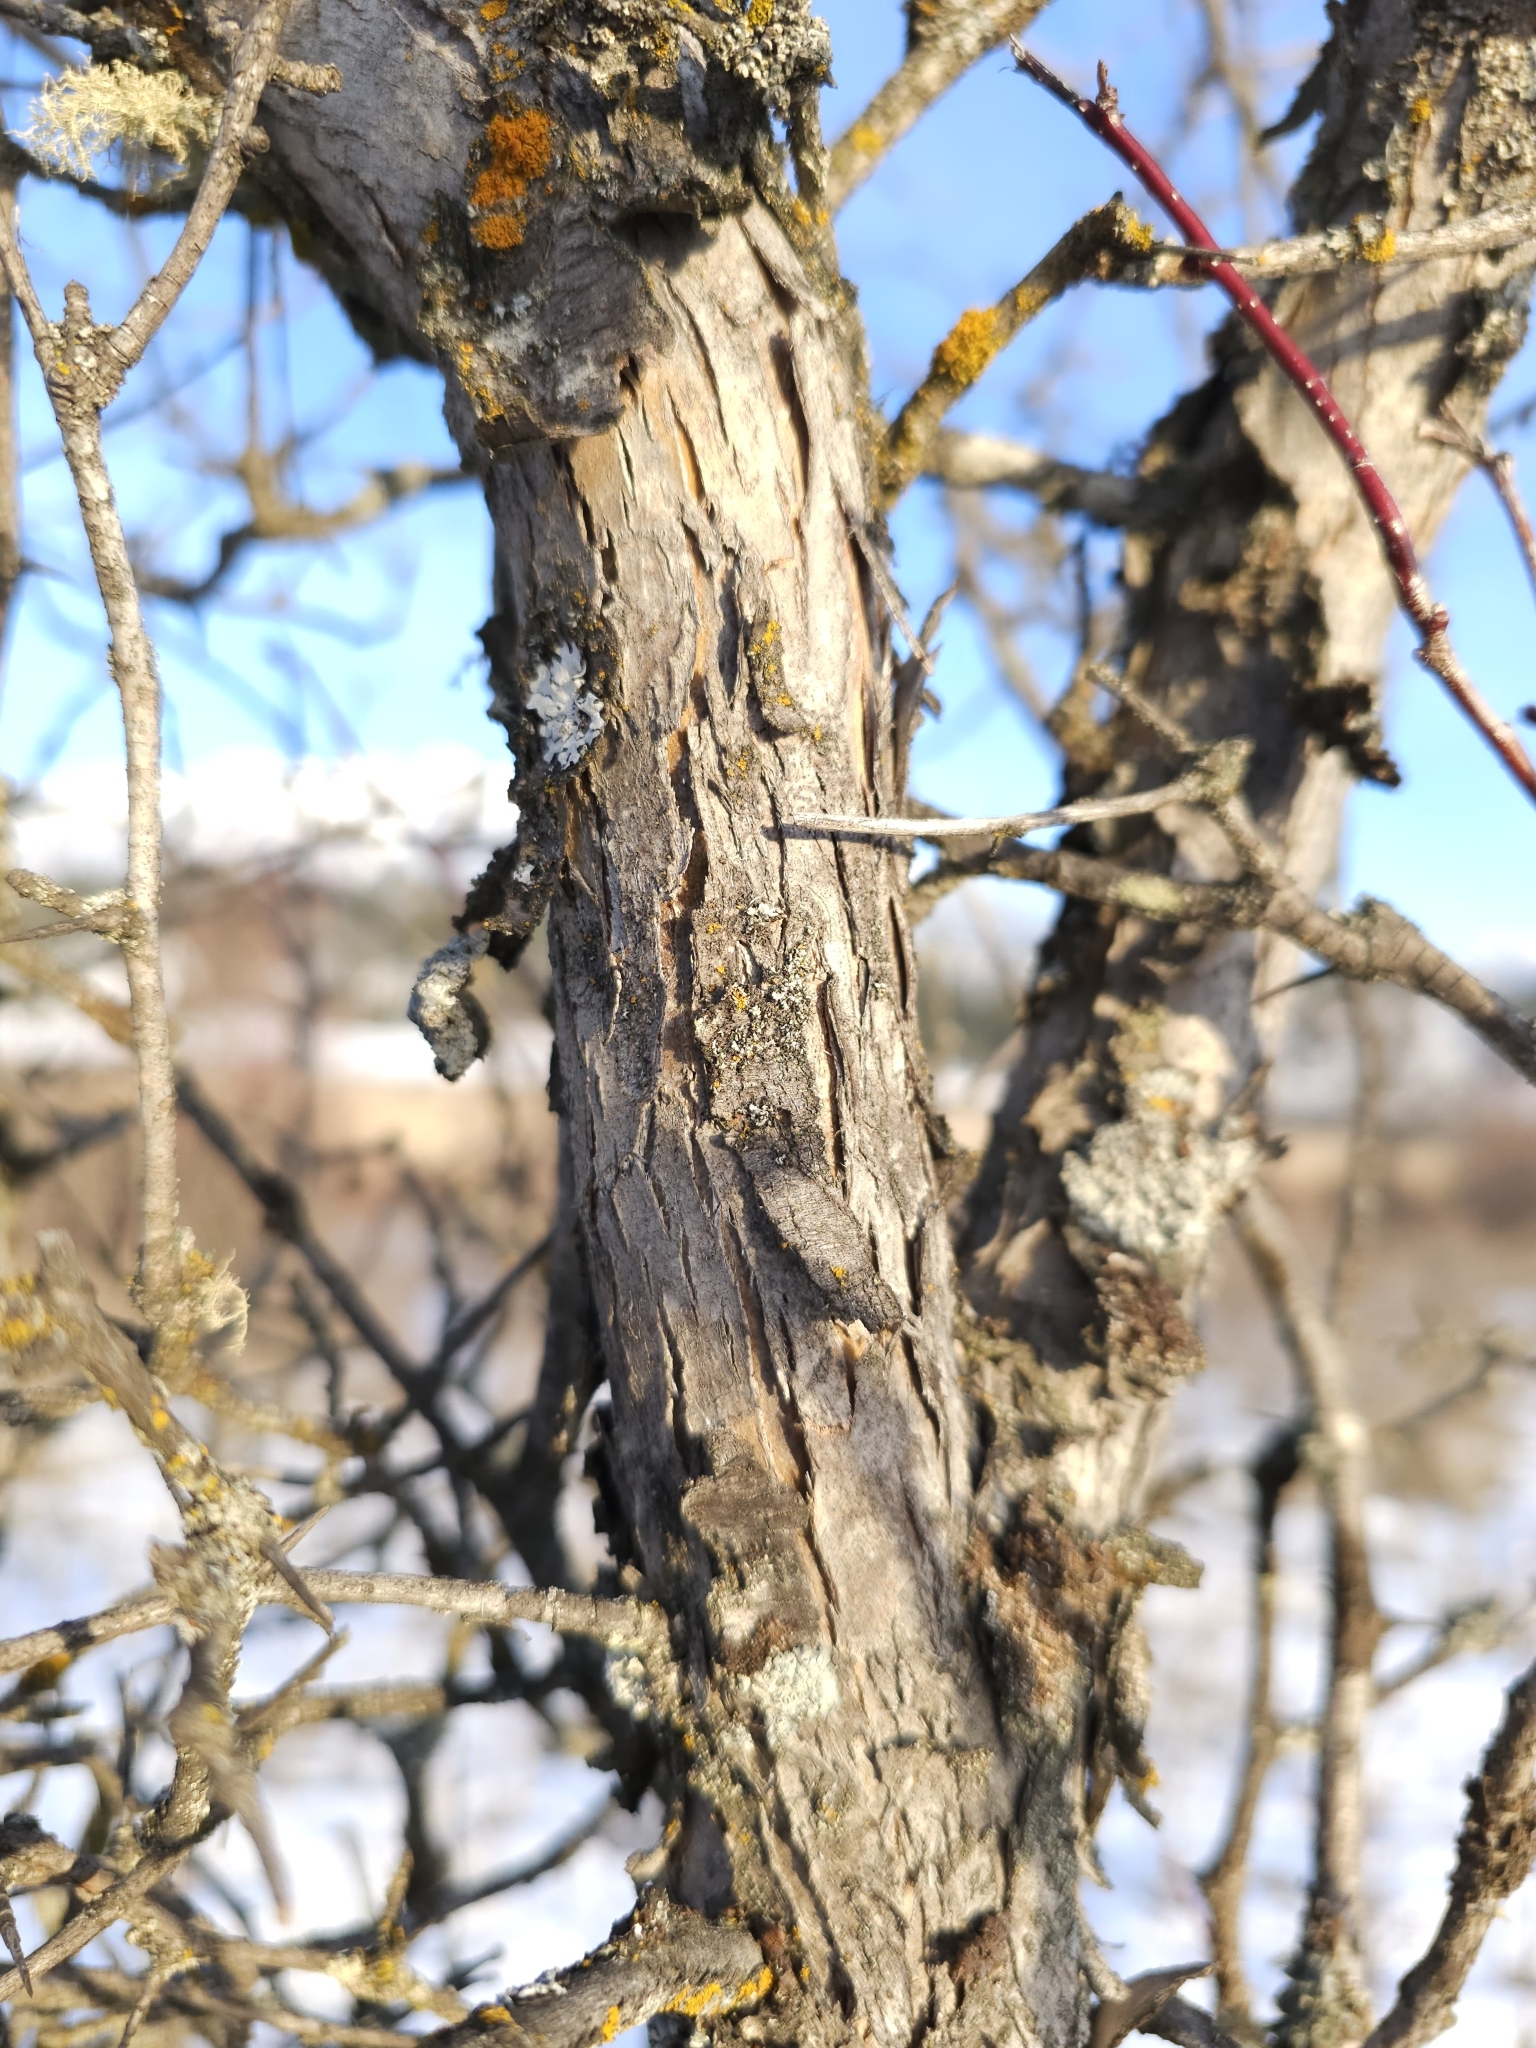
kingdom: Plantae
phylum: Tracheophyta
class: Magnoliopsida
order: Rosales
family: Rosaceae
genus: Crataegus
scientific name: Crataegus douglasii
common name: Black hawthorn
